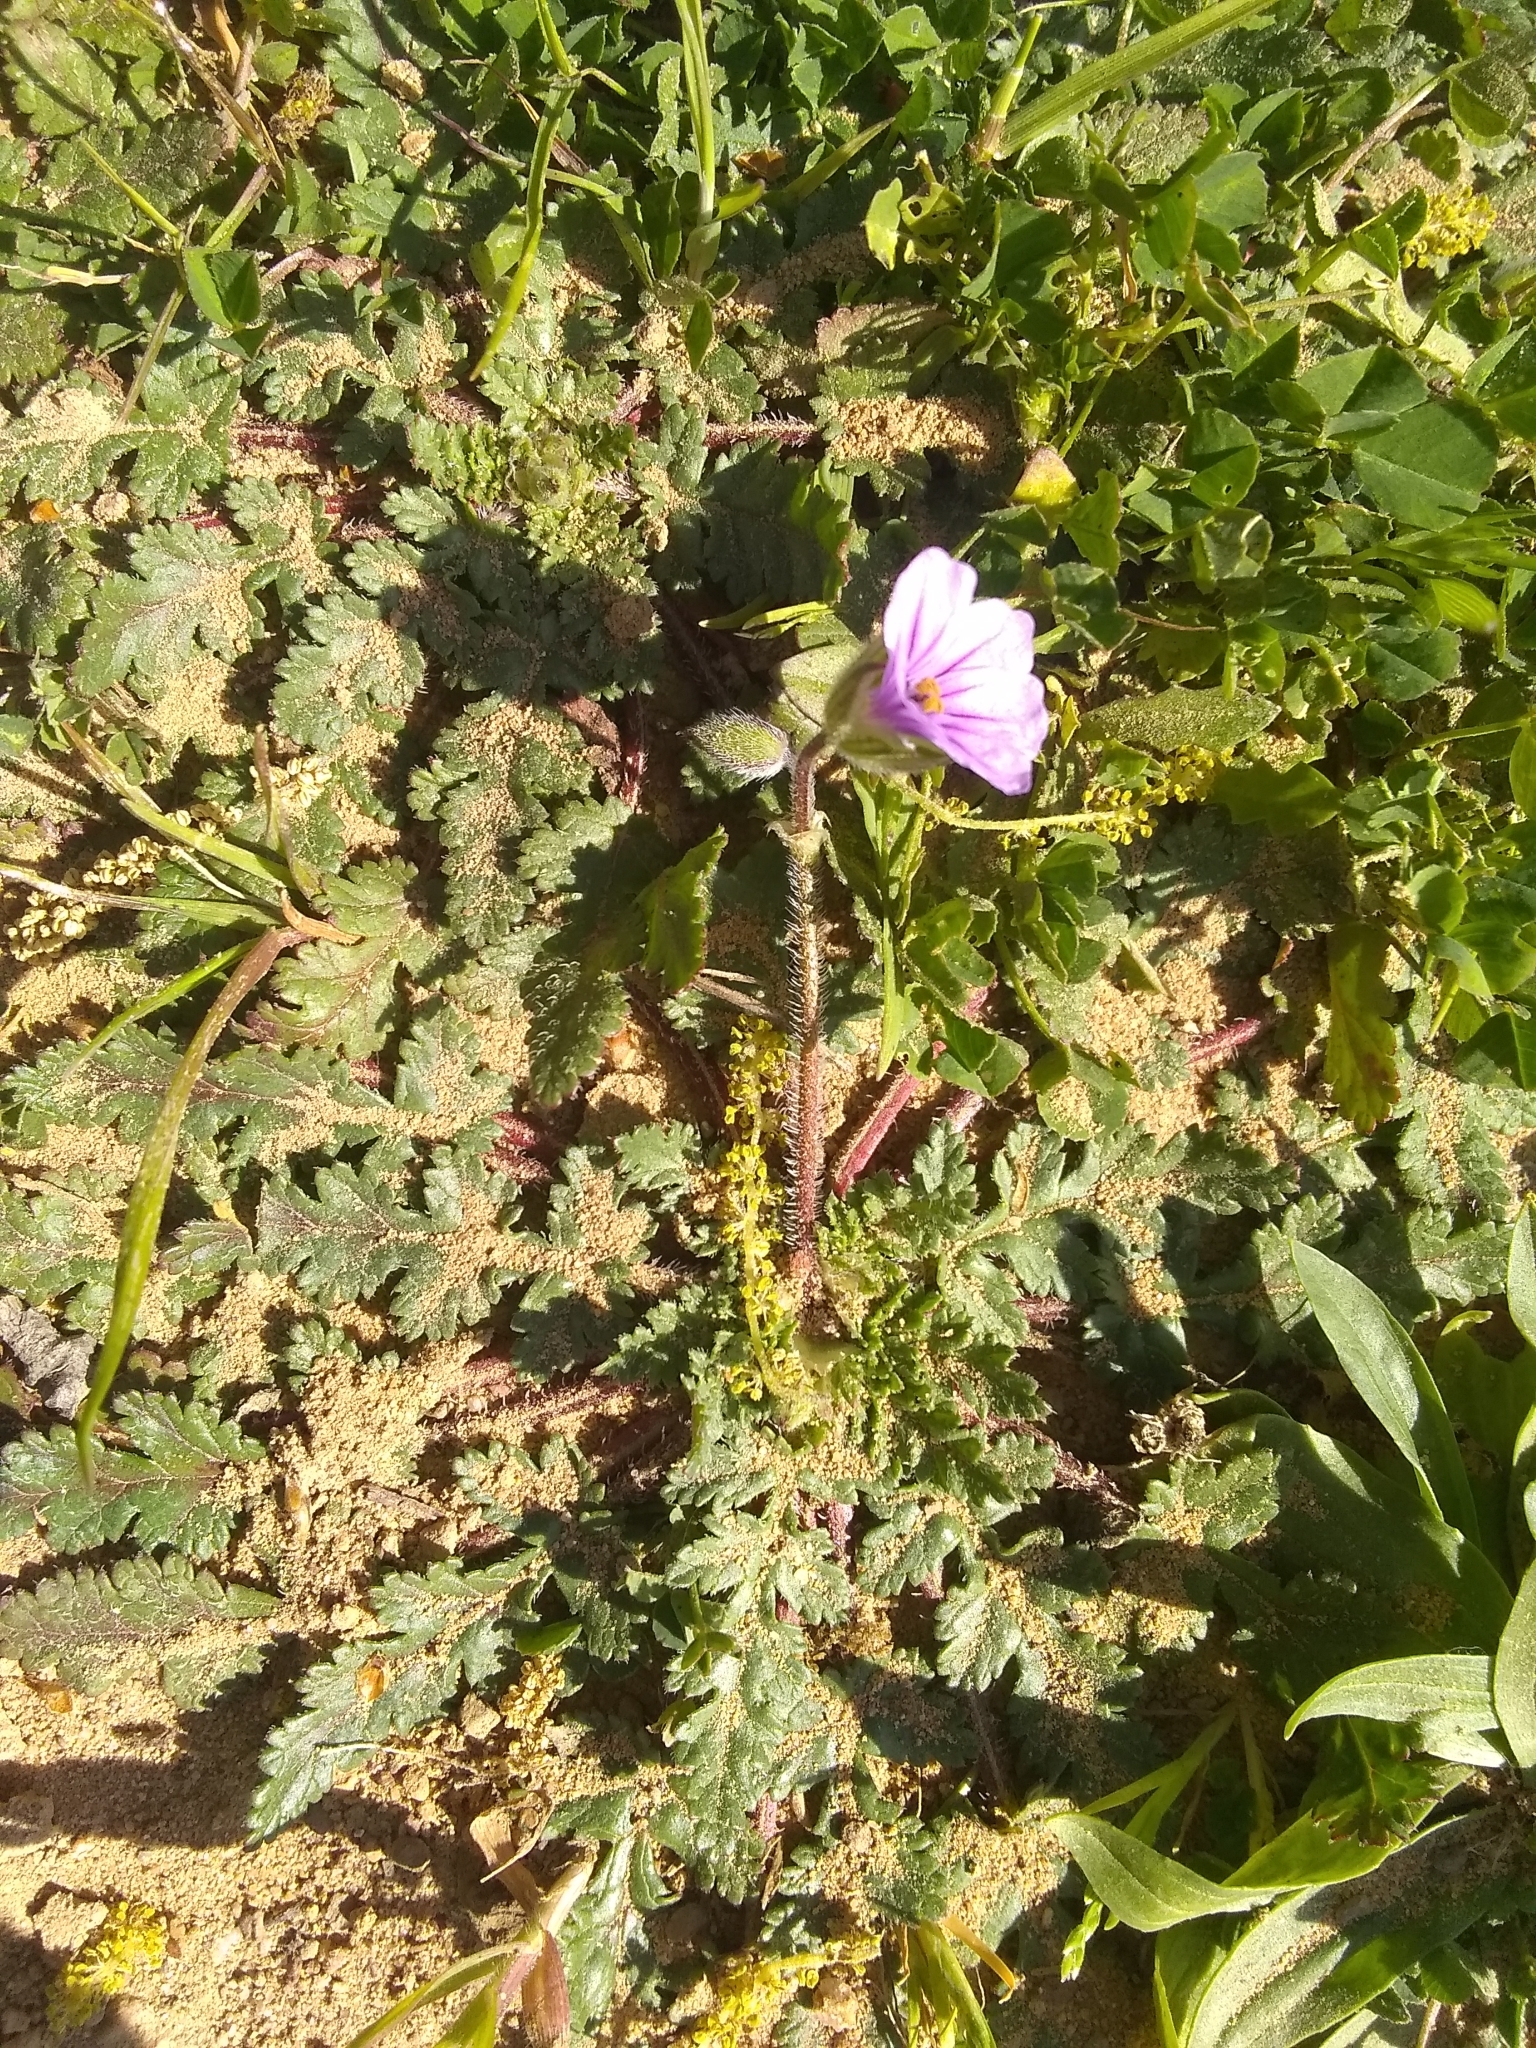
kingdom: Plantae
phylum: Tracheophyta
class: Magnoliopsida
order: Geraniales
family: Geraniaceae
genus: Erodium
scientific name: Erodium botrys
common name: Mediterranean stork's-bill
